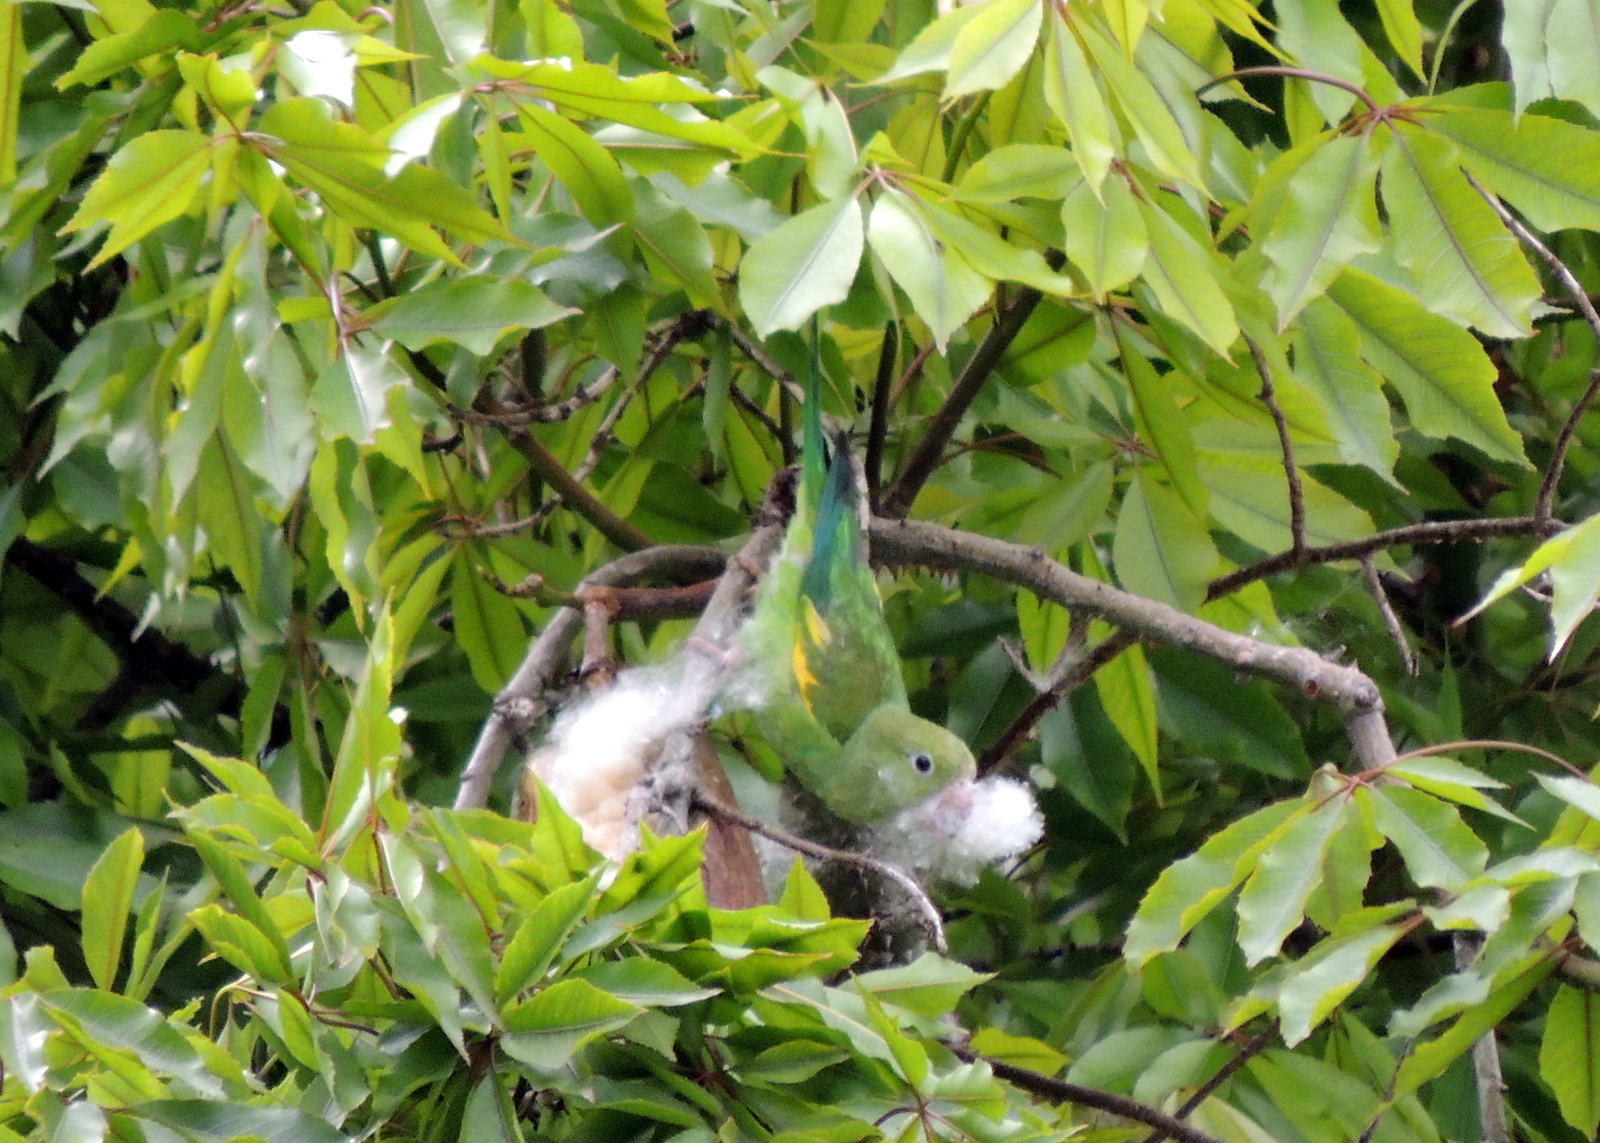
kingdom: Animalia
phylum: Chordata
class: Aves
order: Psittaciformes
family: Psittacidae
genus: Brotogeris
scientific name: Brotogeris chiriri
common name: Yellow-chevroned parakeet
